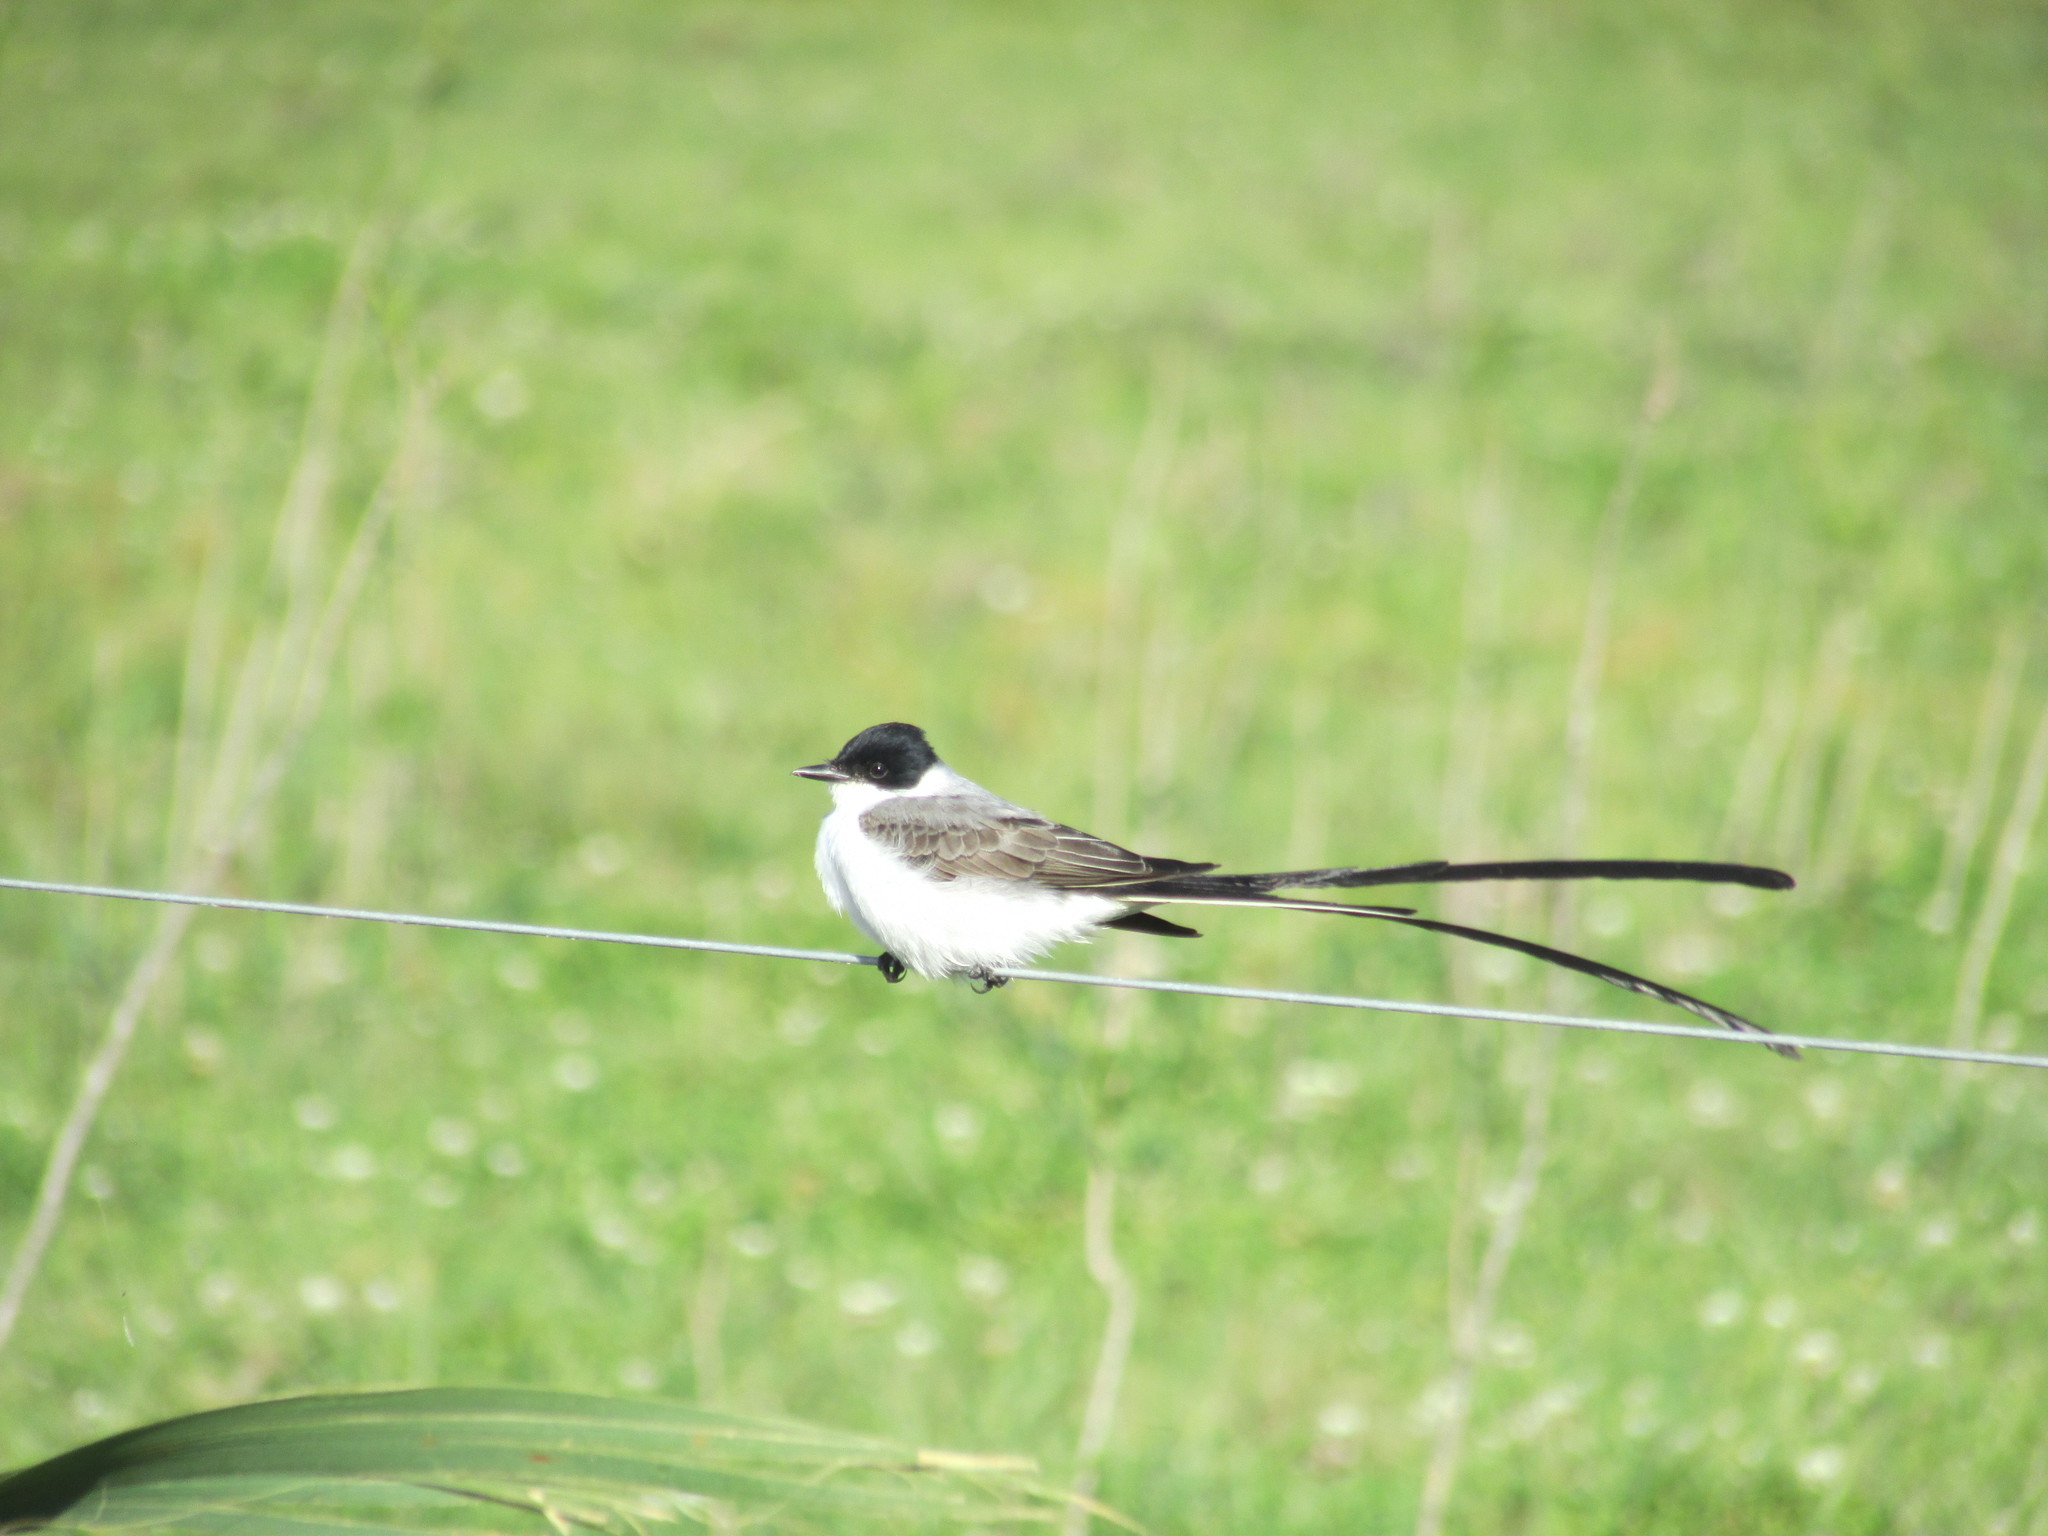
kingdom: Animalia
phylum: Chordata
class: Aves
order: Passeriformes
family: Tyrannidae
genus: Tyrannus
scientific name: Tyrannus savana
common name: Fork-tailed flycatcher
